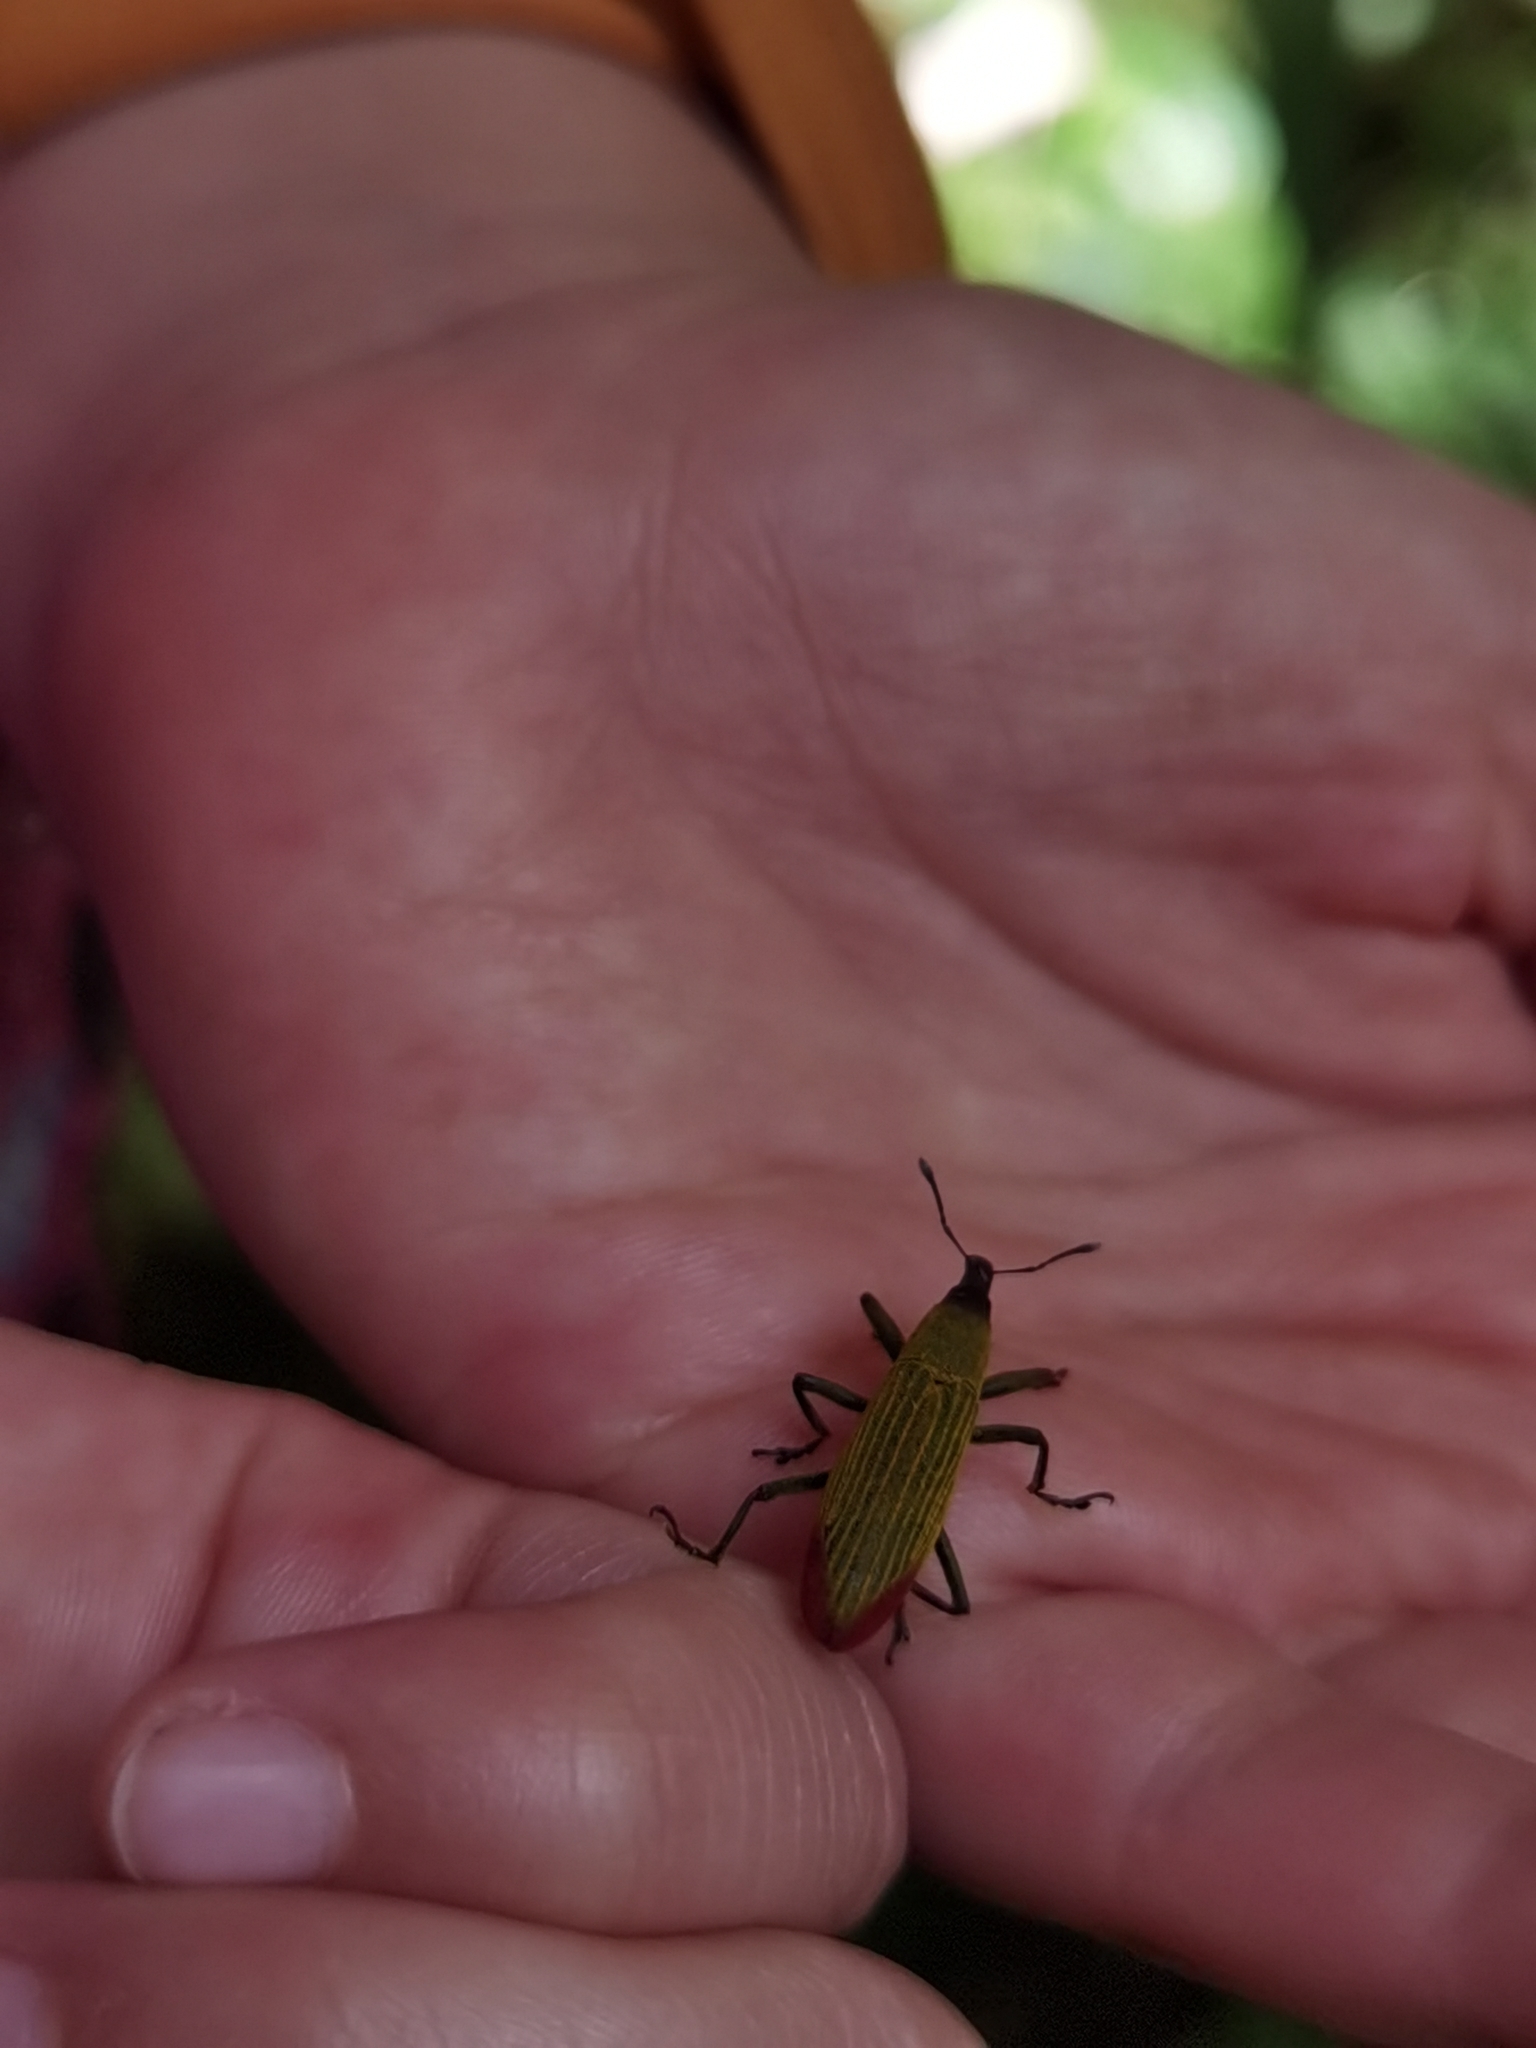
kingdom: Animalia
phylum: Arthropoda
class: Insecta
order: Coleoptera
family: Curculionidae
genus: Lixus
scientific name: Lixus apterus
